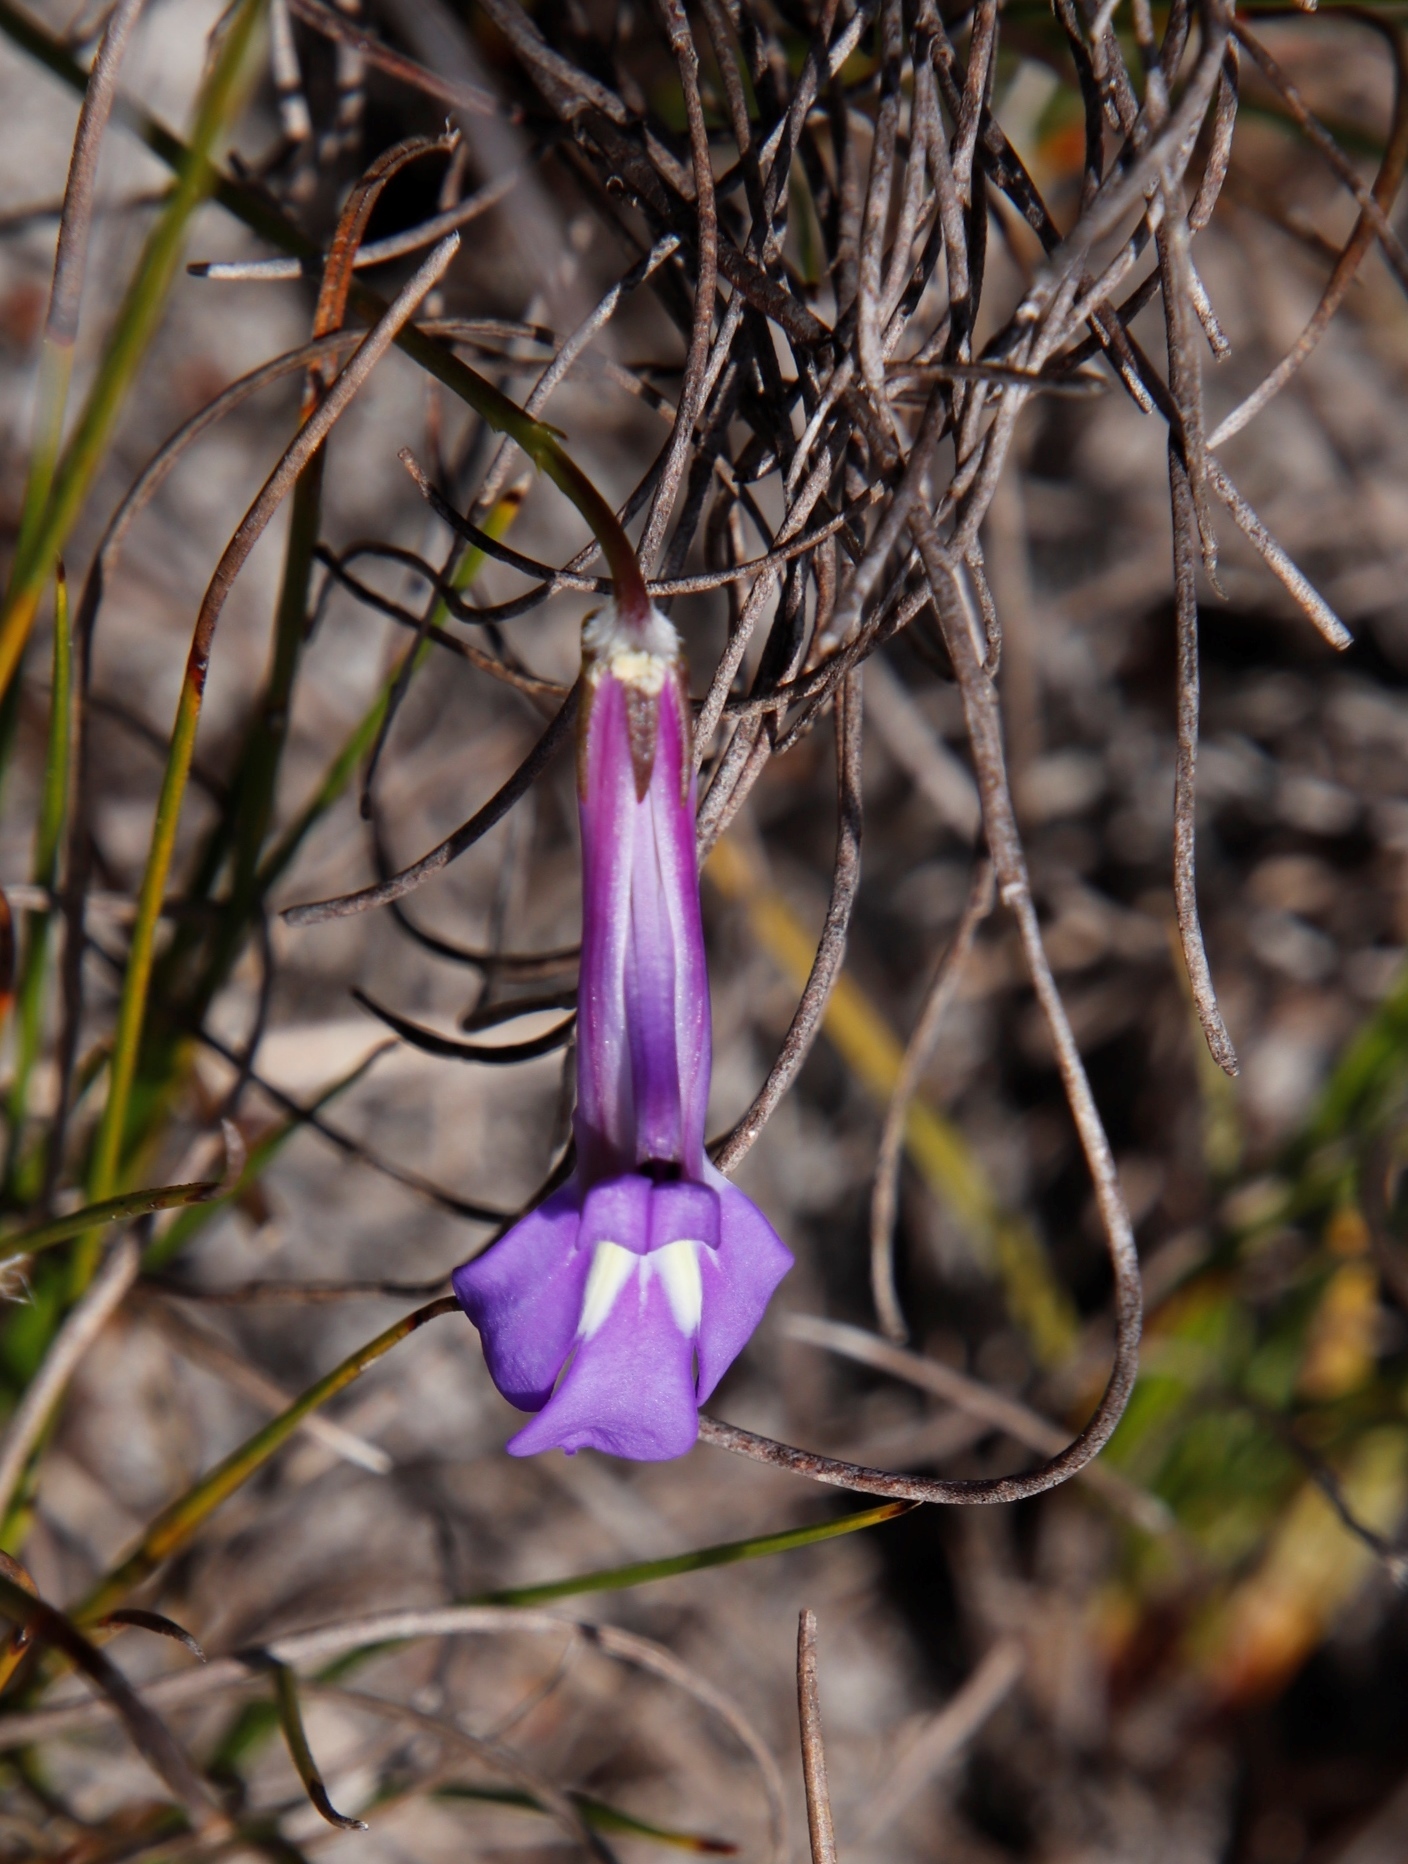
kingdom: Plantae
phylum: Tracheophyta
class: Magnoliopsida
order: Asterales
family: Campanulaceae
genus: Lobelia
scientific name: Lobelia coronopifolia
